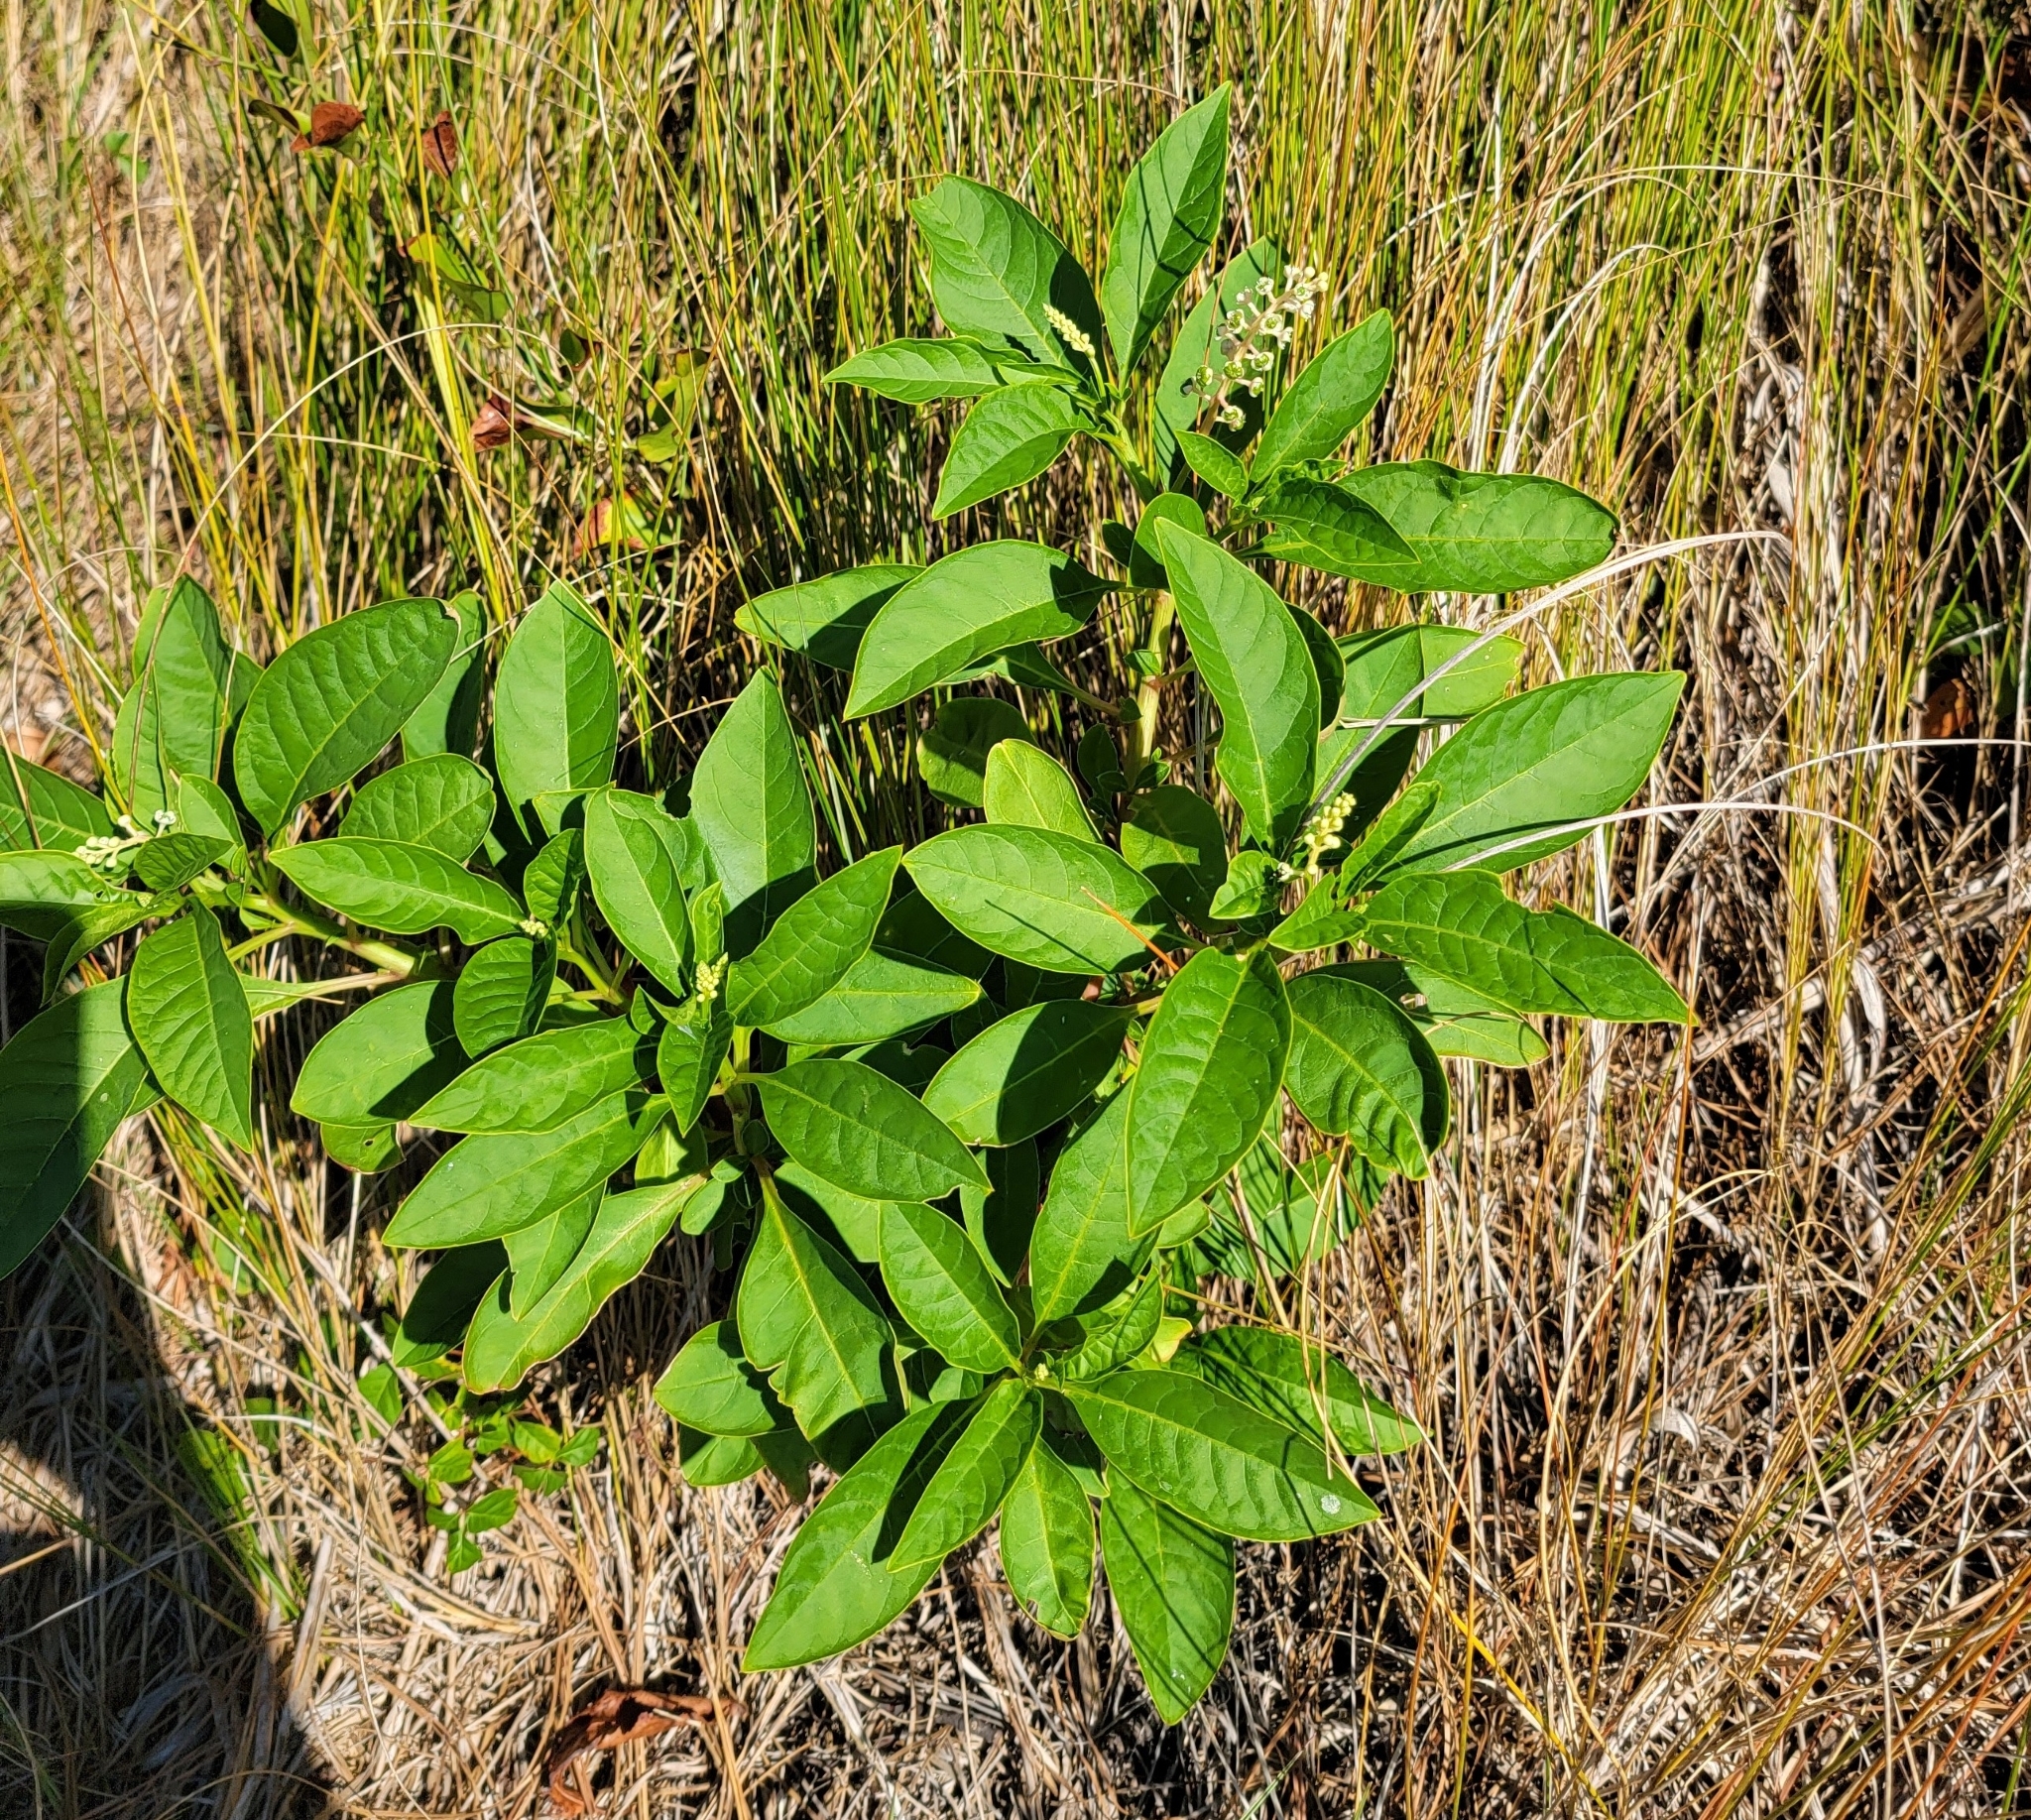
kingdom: Plantae
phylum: Tracheophyta
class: Magnoliopsida
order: Caryophyllales
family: Phytolaccaceae
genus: Phytolacca
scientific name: Phytolacca americana
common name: American pokeweed
